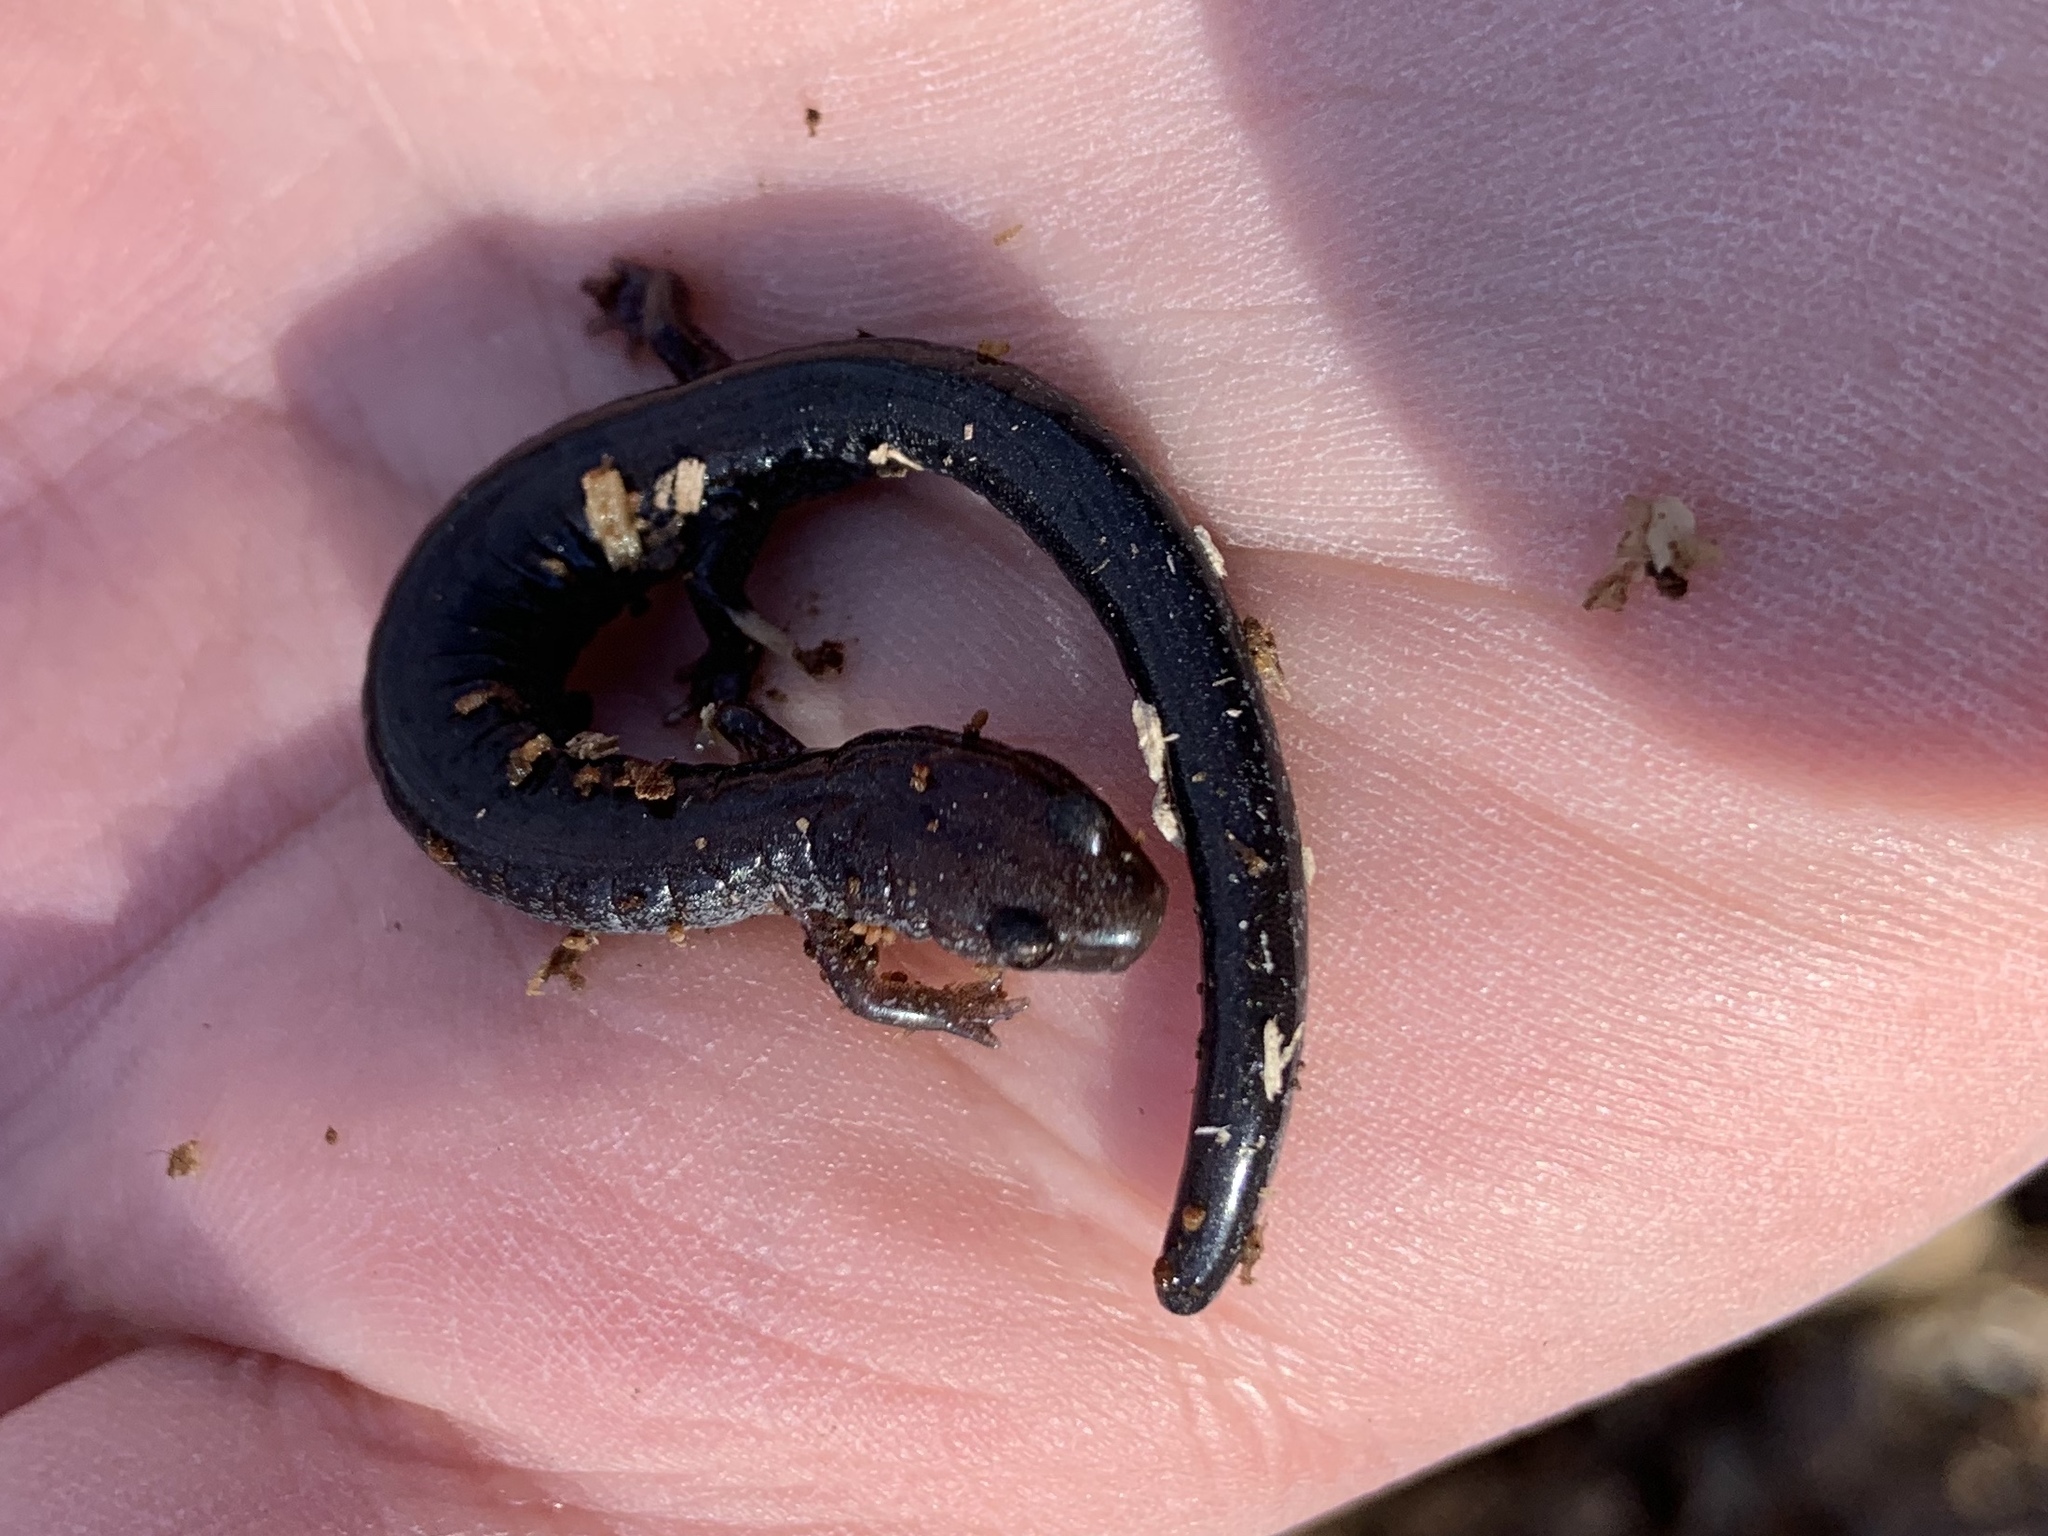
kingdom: Animalia
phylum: Chordata
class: Amphibia
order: Caudata
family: Plethodontidae
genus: Plethodon
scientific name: Plethodon cinereus
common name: Redback salamander
